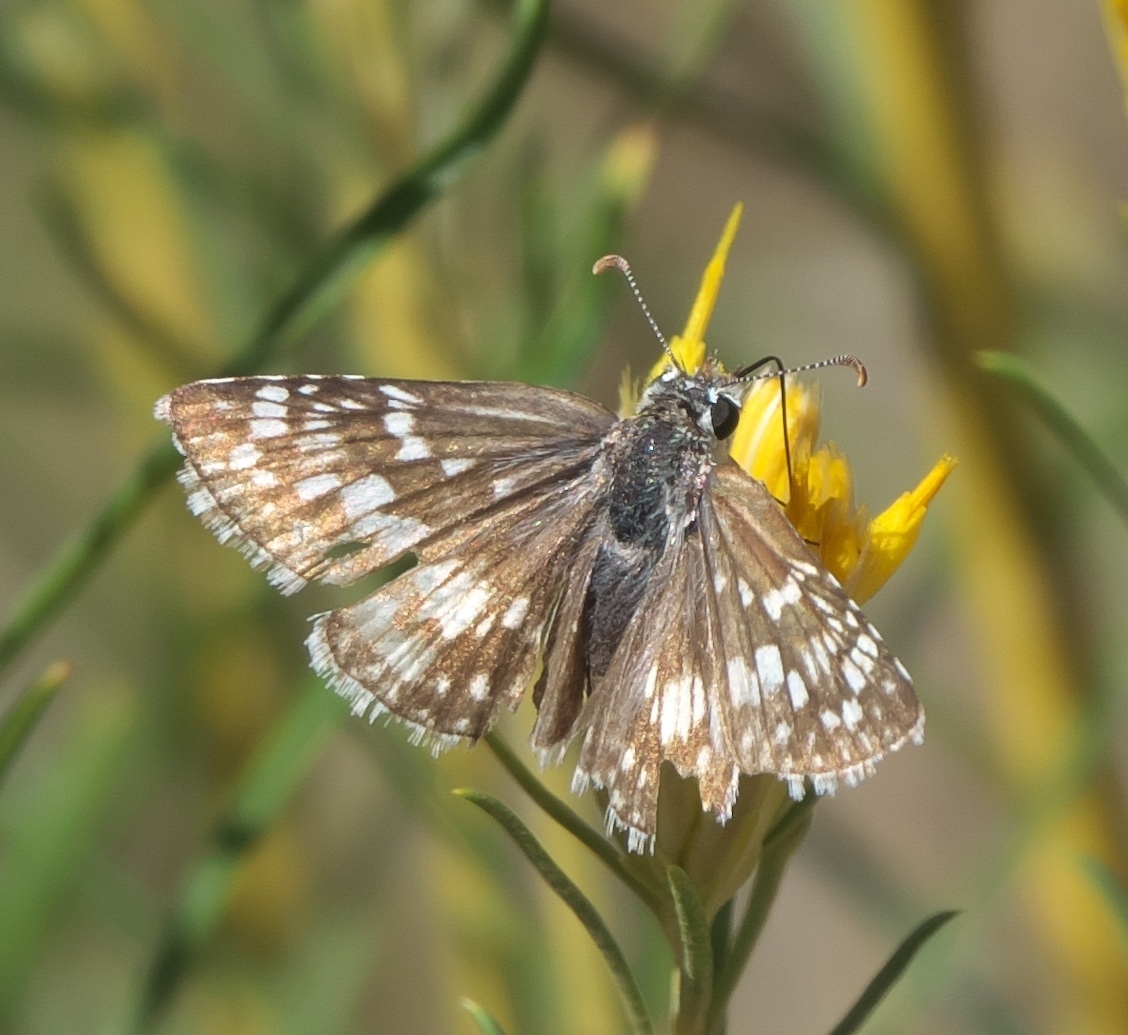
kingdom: Animalia
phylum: Arthropoda
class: Insecta
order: Lepidoptera
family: Hesperiidae
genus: Burnsius
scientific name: Burnsius communis
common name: Common checkered-skipper
